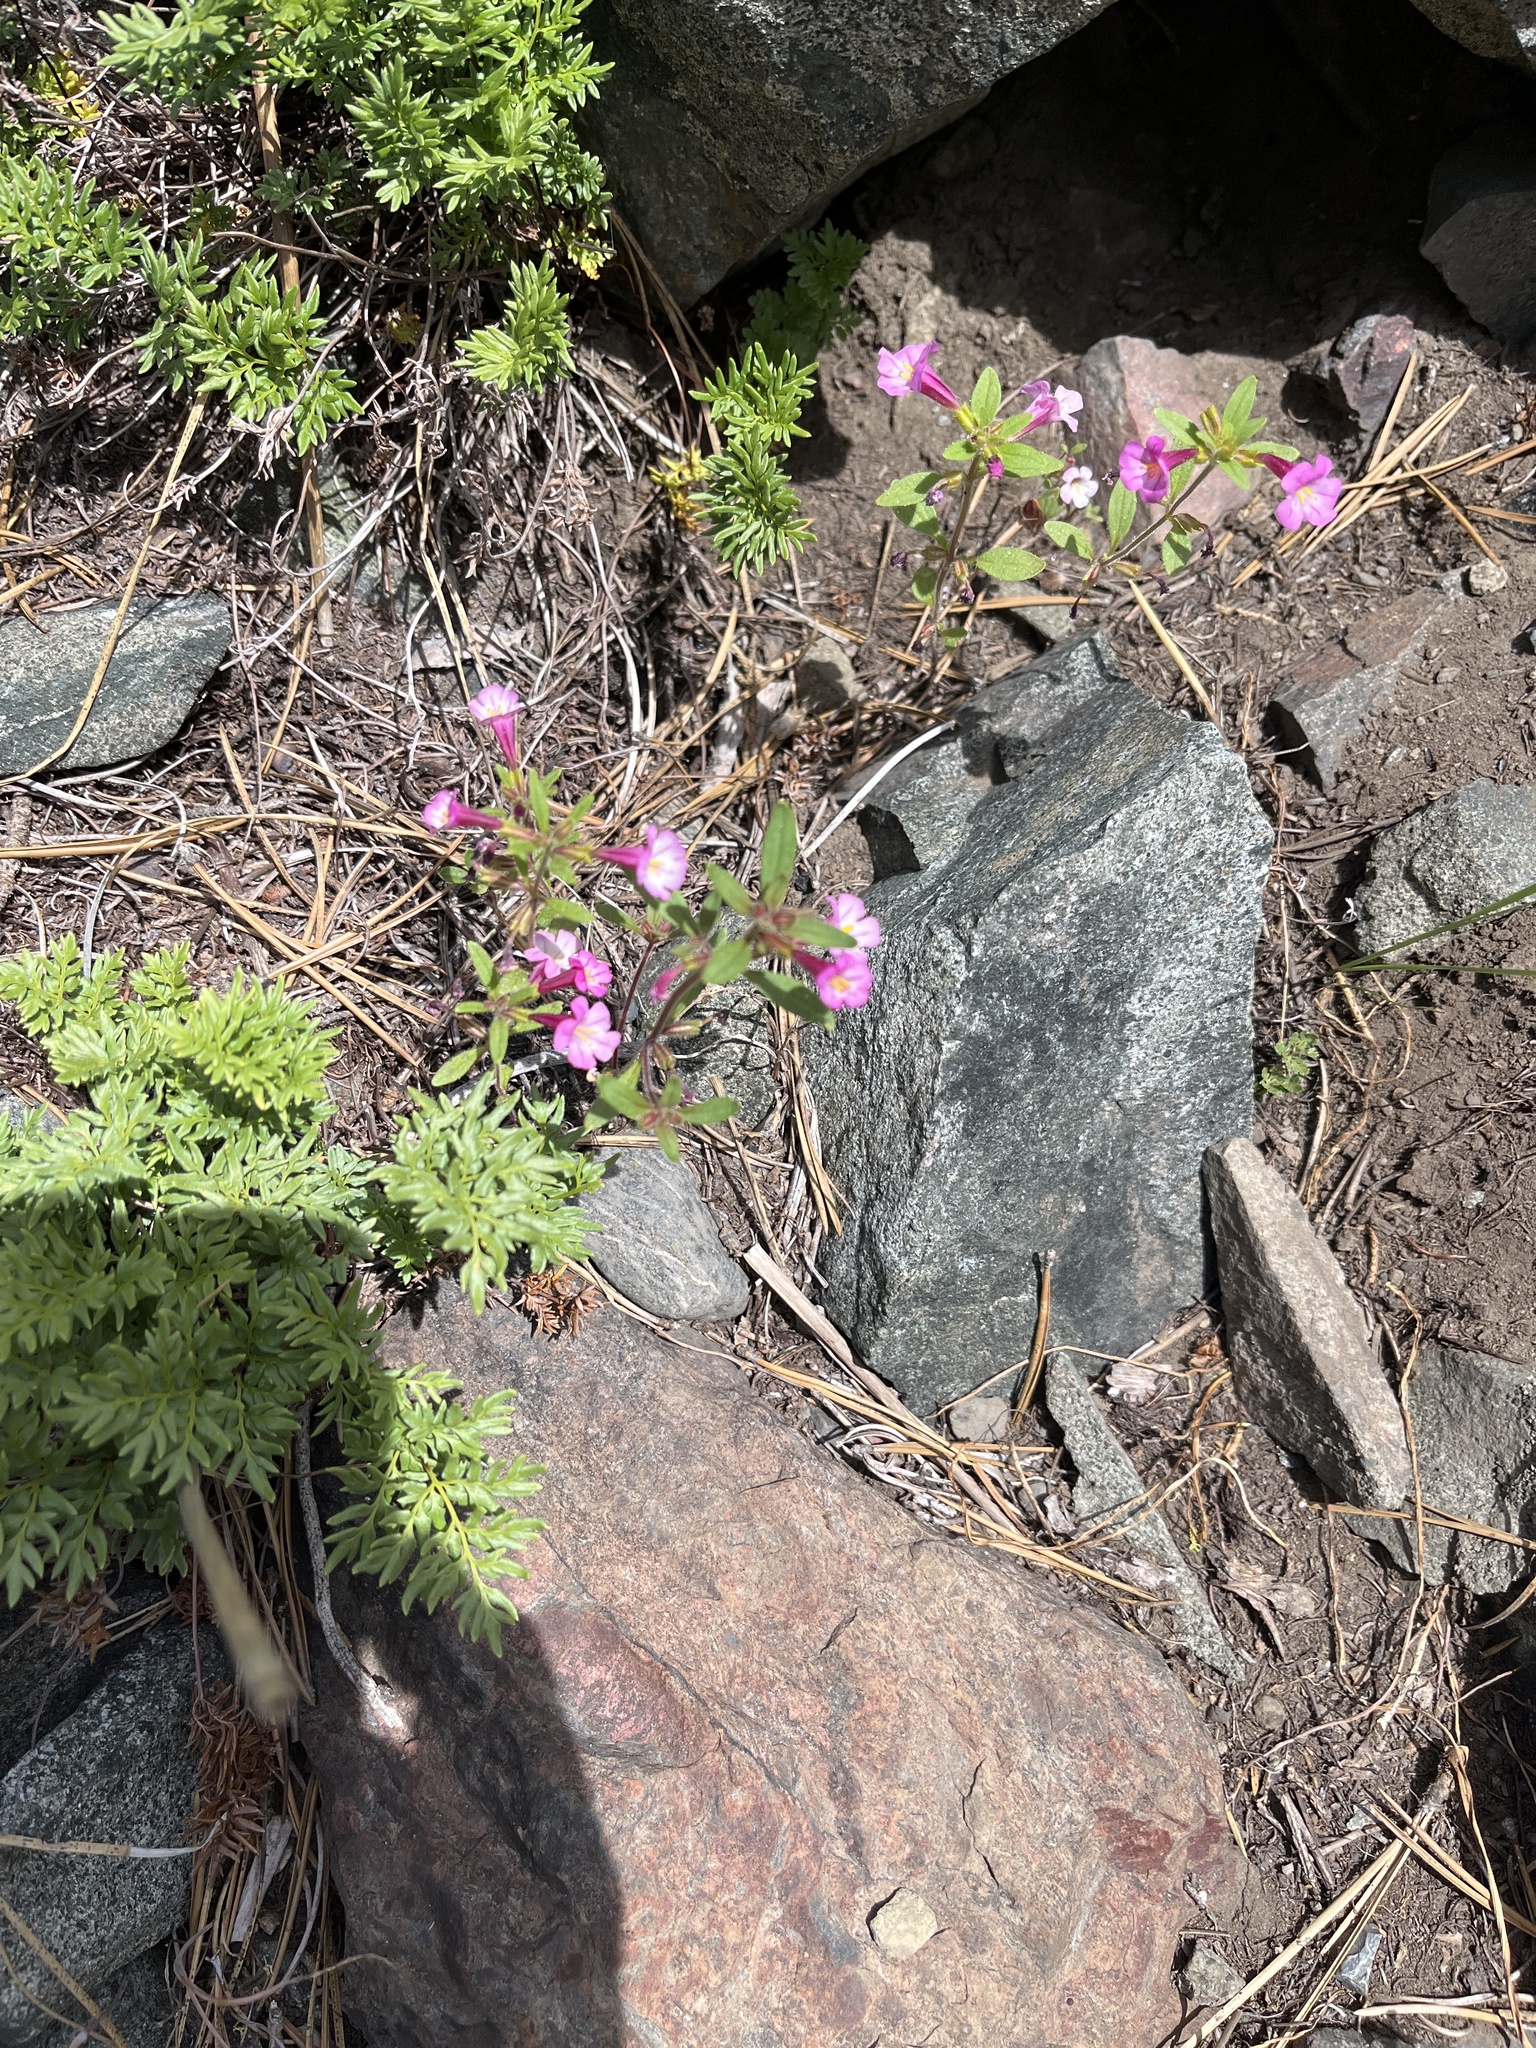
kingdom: Plantae
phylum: Tracheophyta
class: Magnoliopsida
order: Lamiales
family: Phrymaceae
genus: Diplacus
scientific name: Diplacus torreyi
